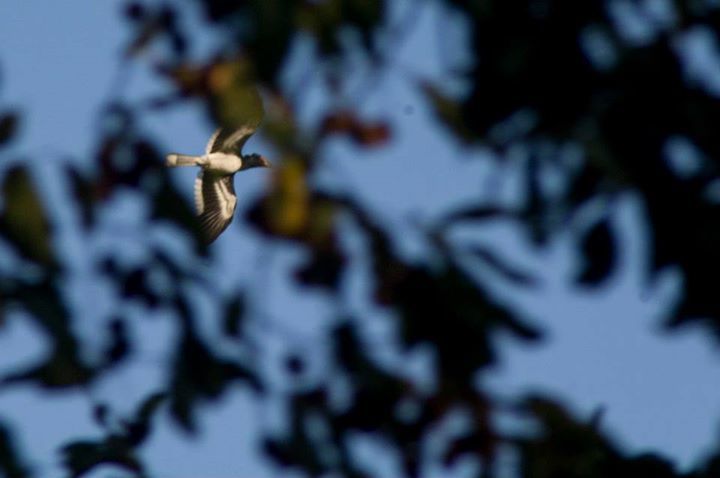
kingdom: Animalia
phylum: Chordata
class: Aves
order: Bucerotiformes
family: Bucerotidae
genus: Bycanistes
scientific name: Bycanistes bucinator
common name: Trumpeter hornbill
